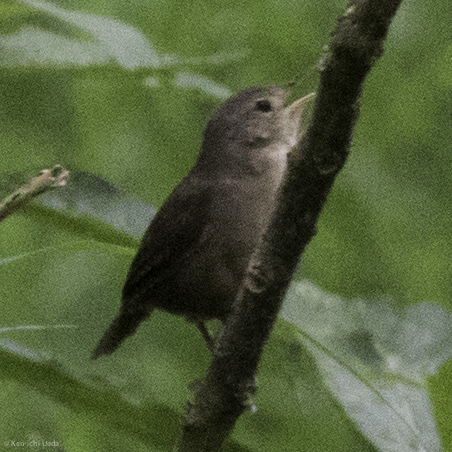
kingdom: Animalia
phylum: Chordata
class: Aves
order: Passeriformes
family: Troglodytidae
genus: Troglodytes
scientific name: Troglodytes aedon
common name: House wren
